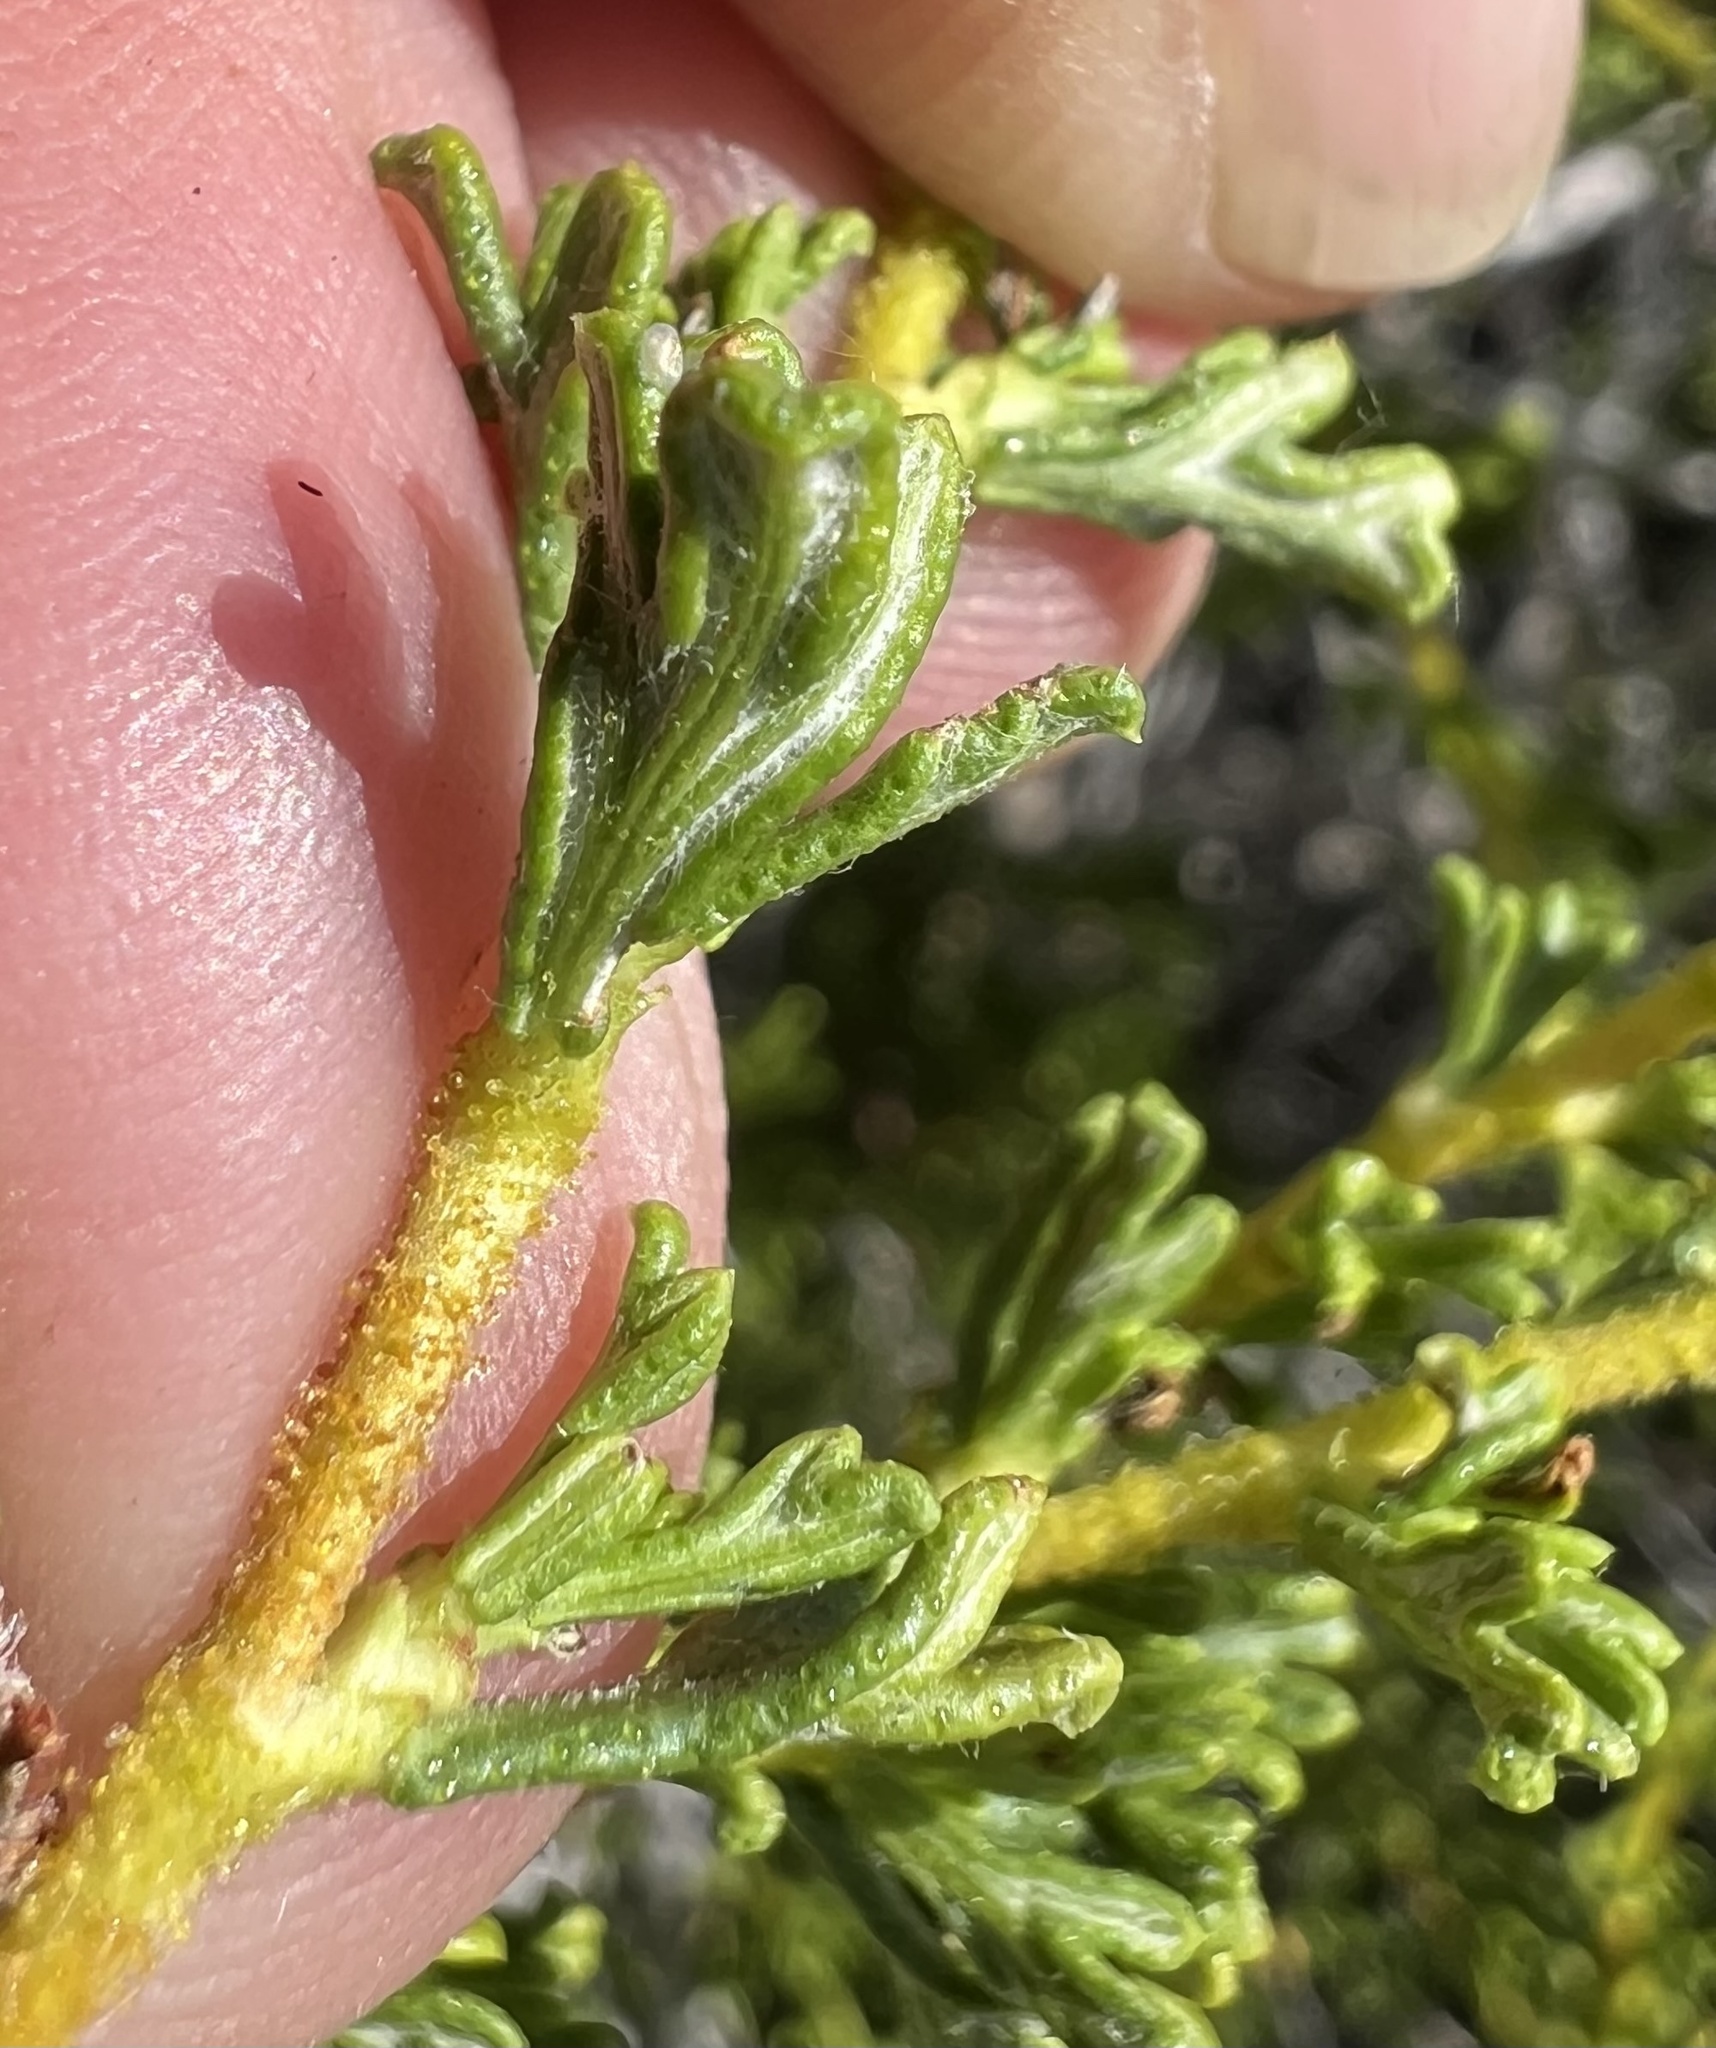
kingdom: Plantae
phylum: Tracheophyta
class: Magnoliopsida
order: Rosales
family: Rosaceae
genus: Purshia
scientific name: Purshia glandulosa
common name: Desert bitterbrush
